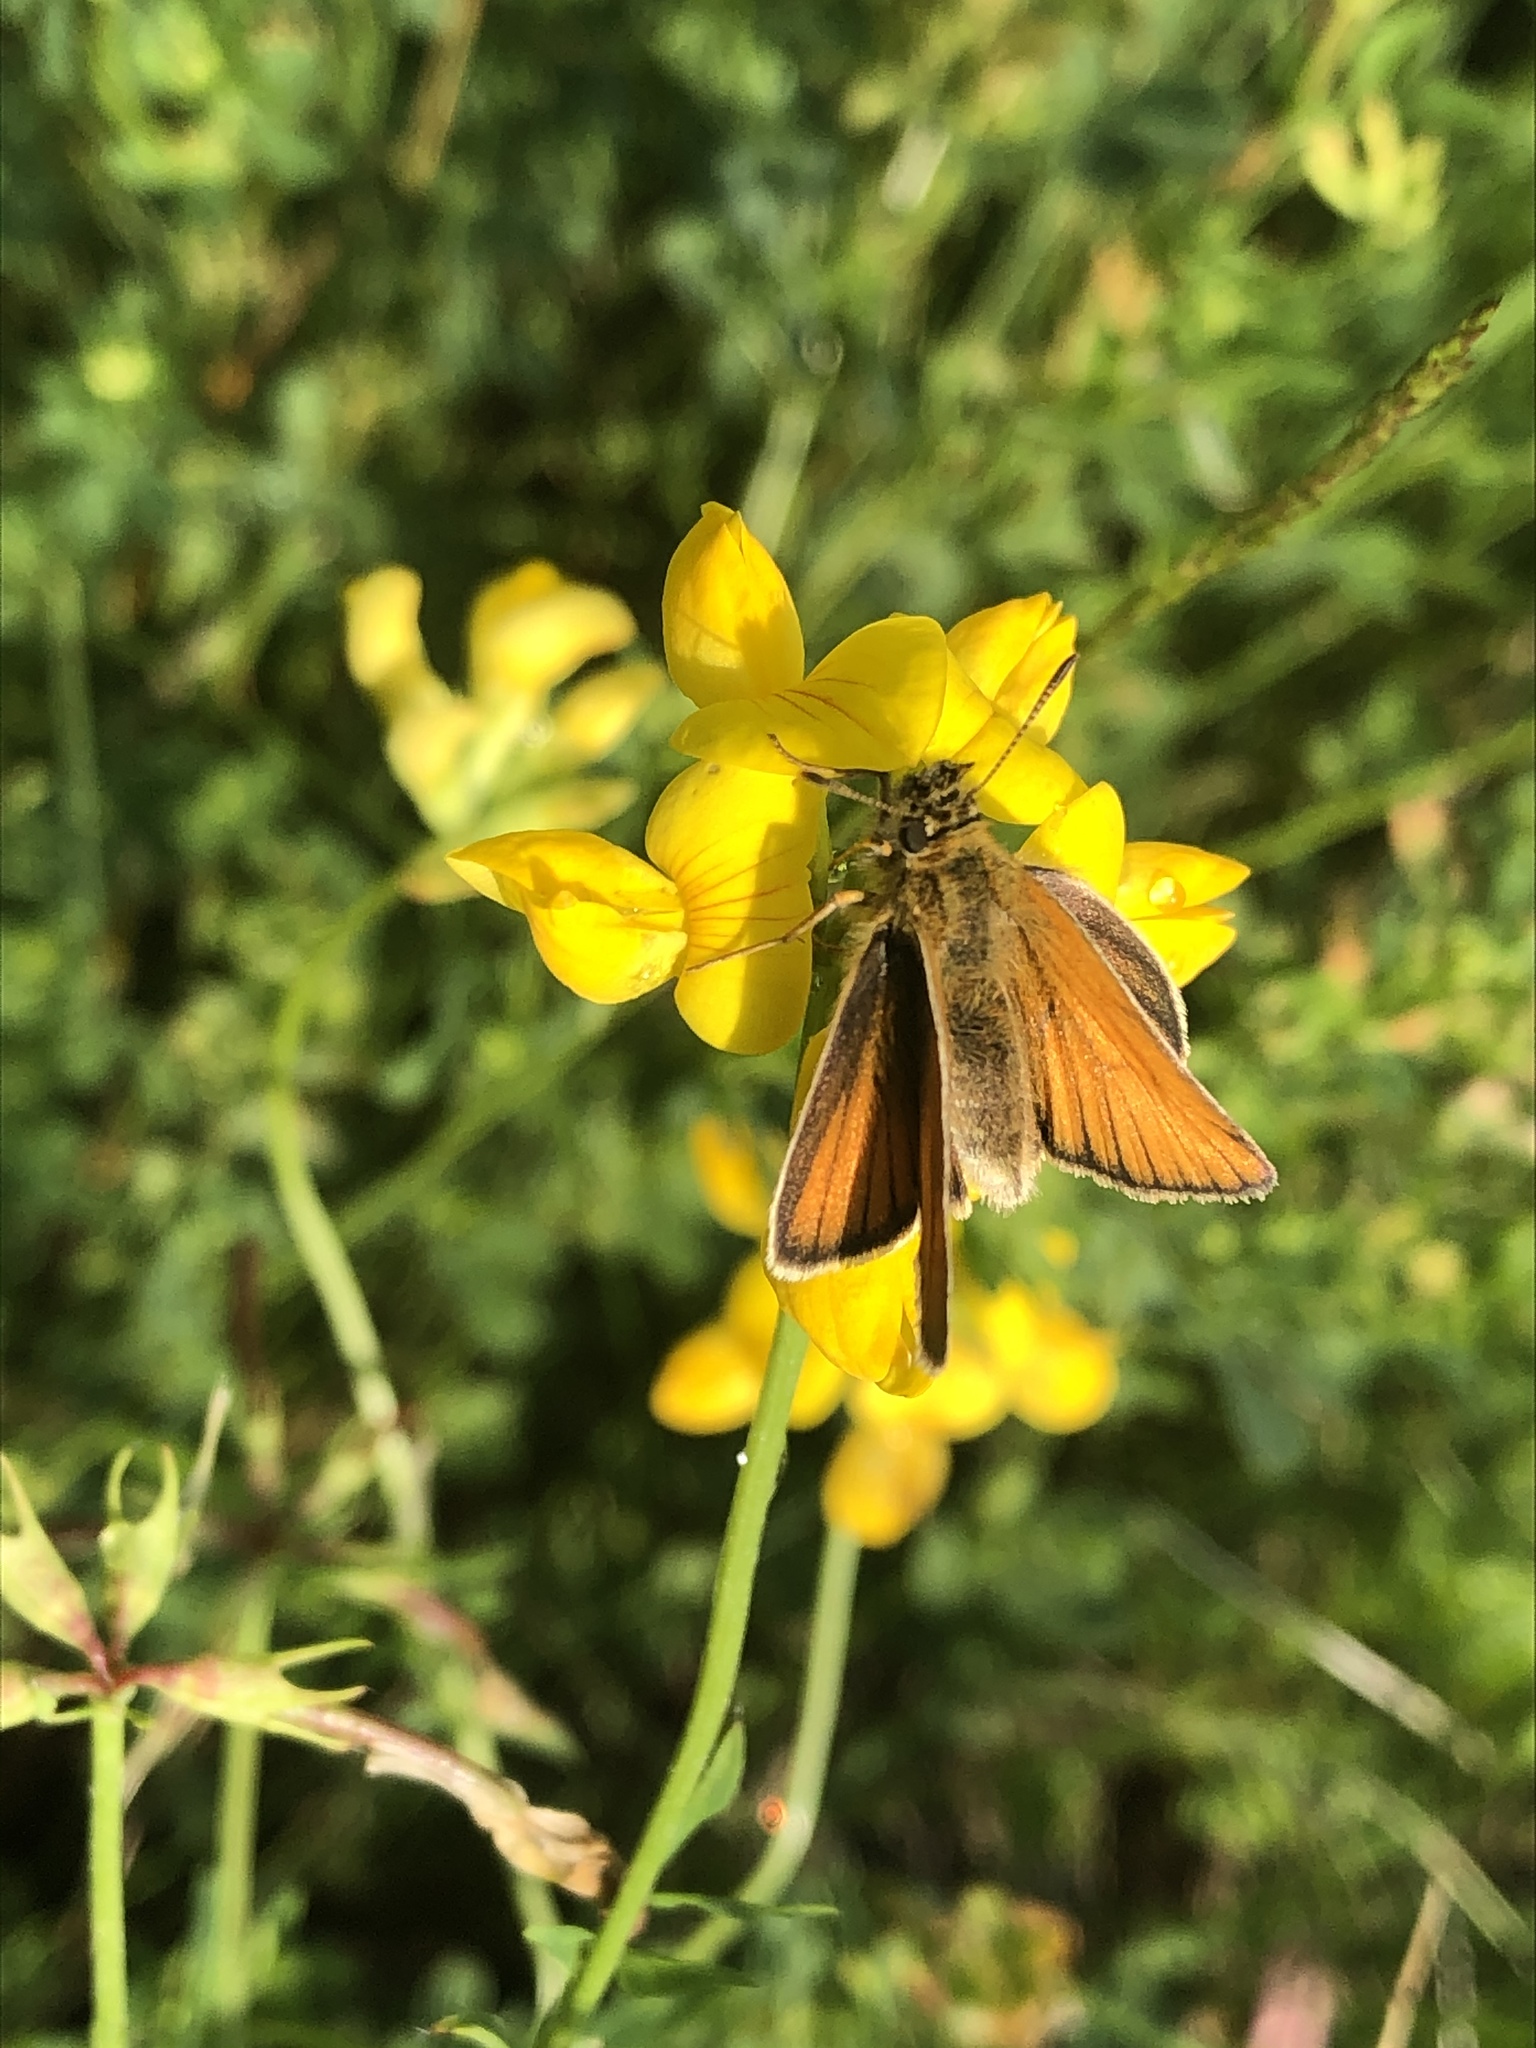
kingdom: Animalia
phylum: Arthropoda
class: Insecta
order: Lepidoptera
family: Hesperiidae
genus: Thymelicus
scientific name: Thymelicus lineola
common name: Essex skipper
